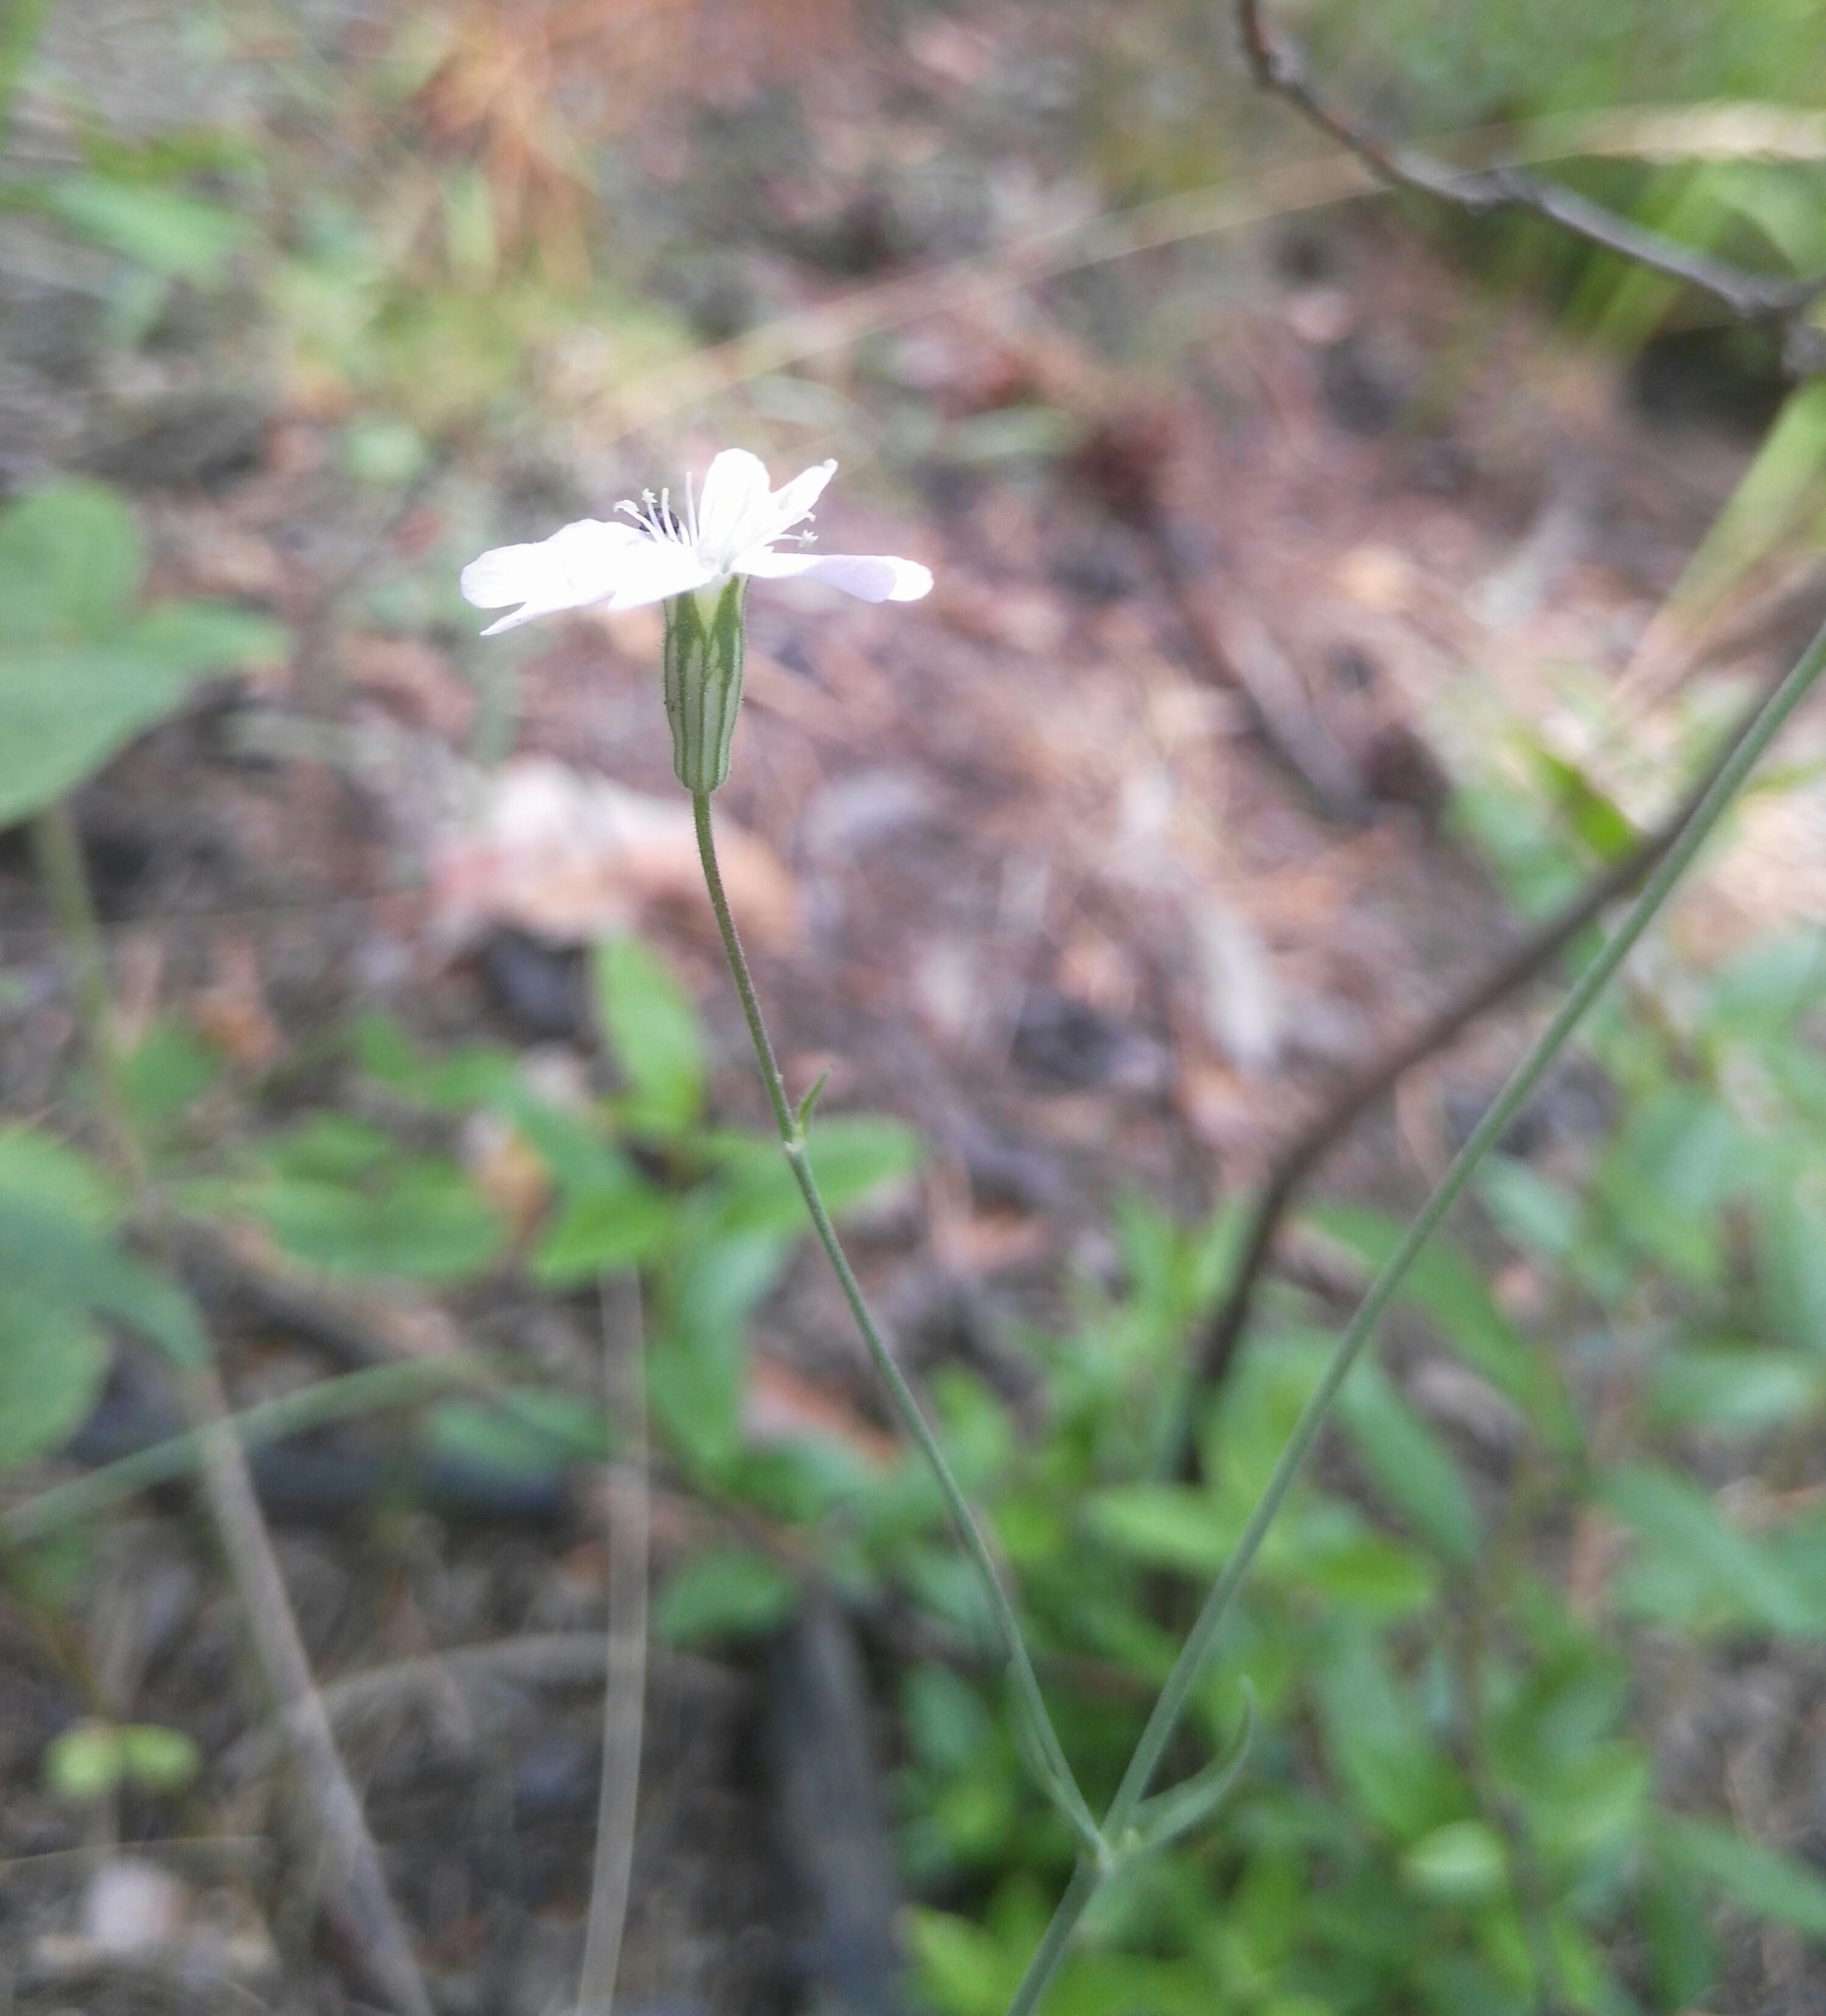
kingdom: Plantae
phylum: Tracheophyta
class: Magnoliopsida
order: Caryophyllales
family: Caryophyllaceae
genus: Silene
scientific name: Silene orientalimongolica
